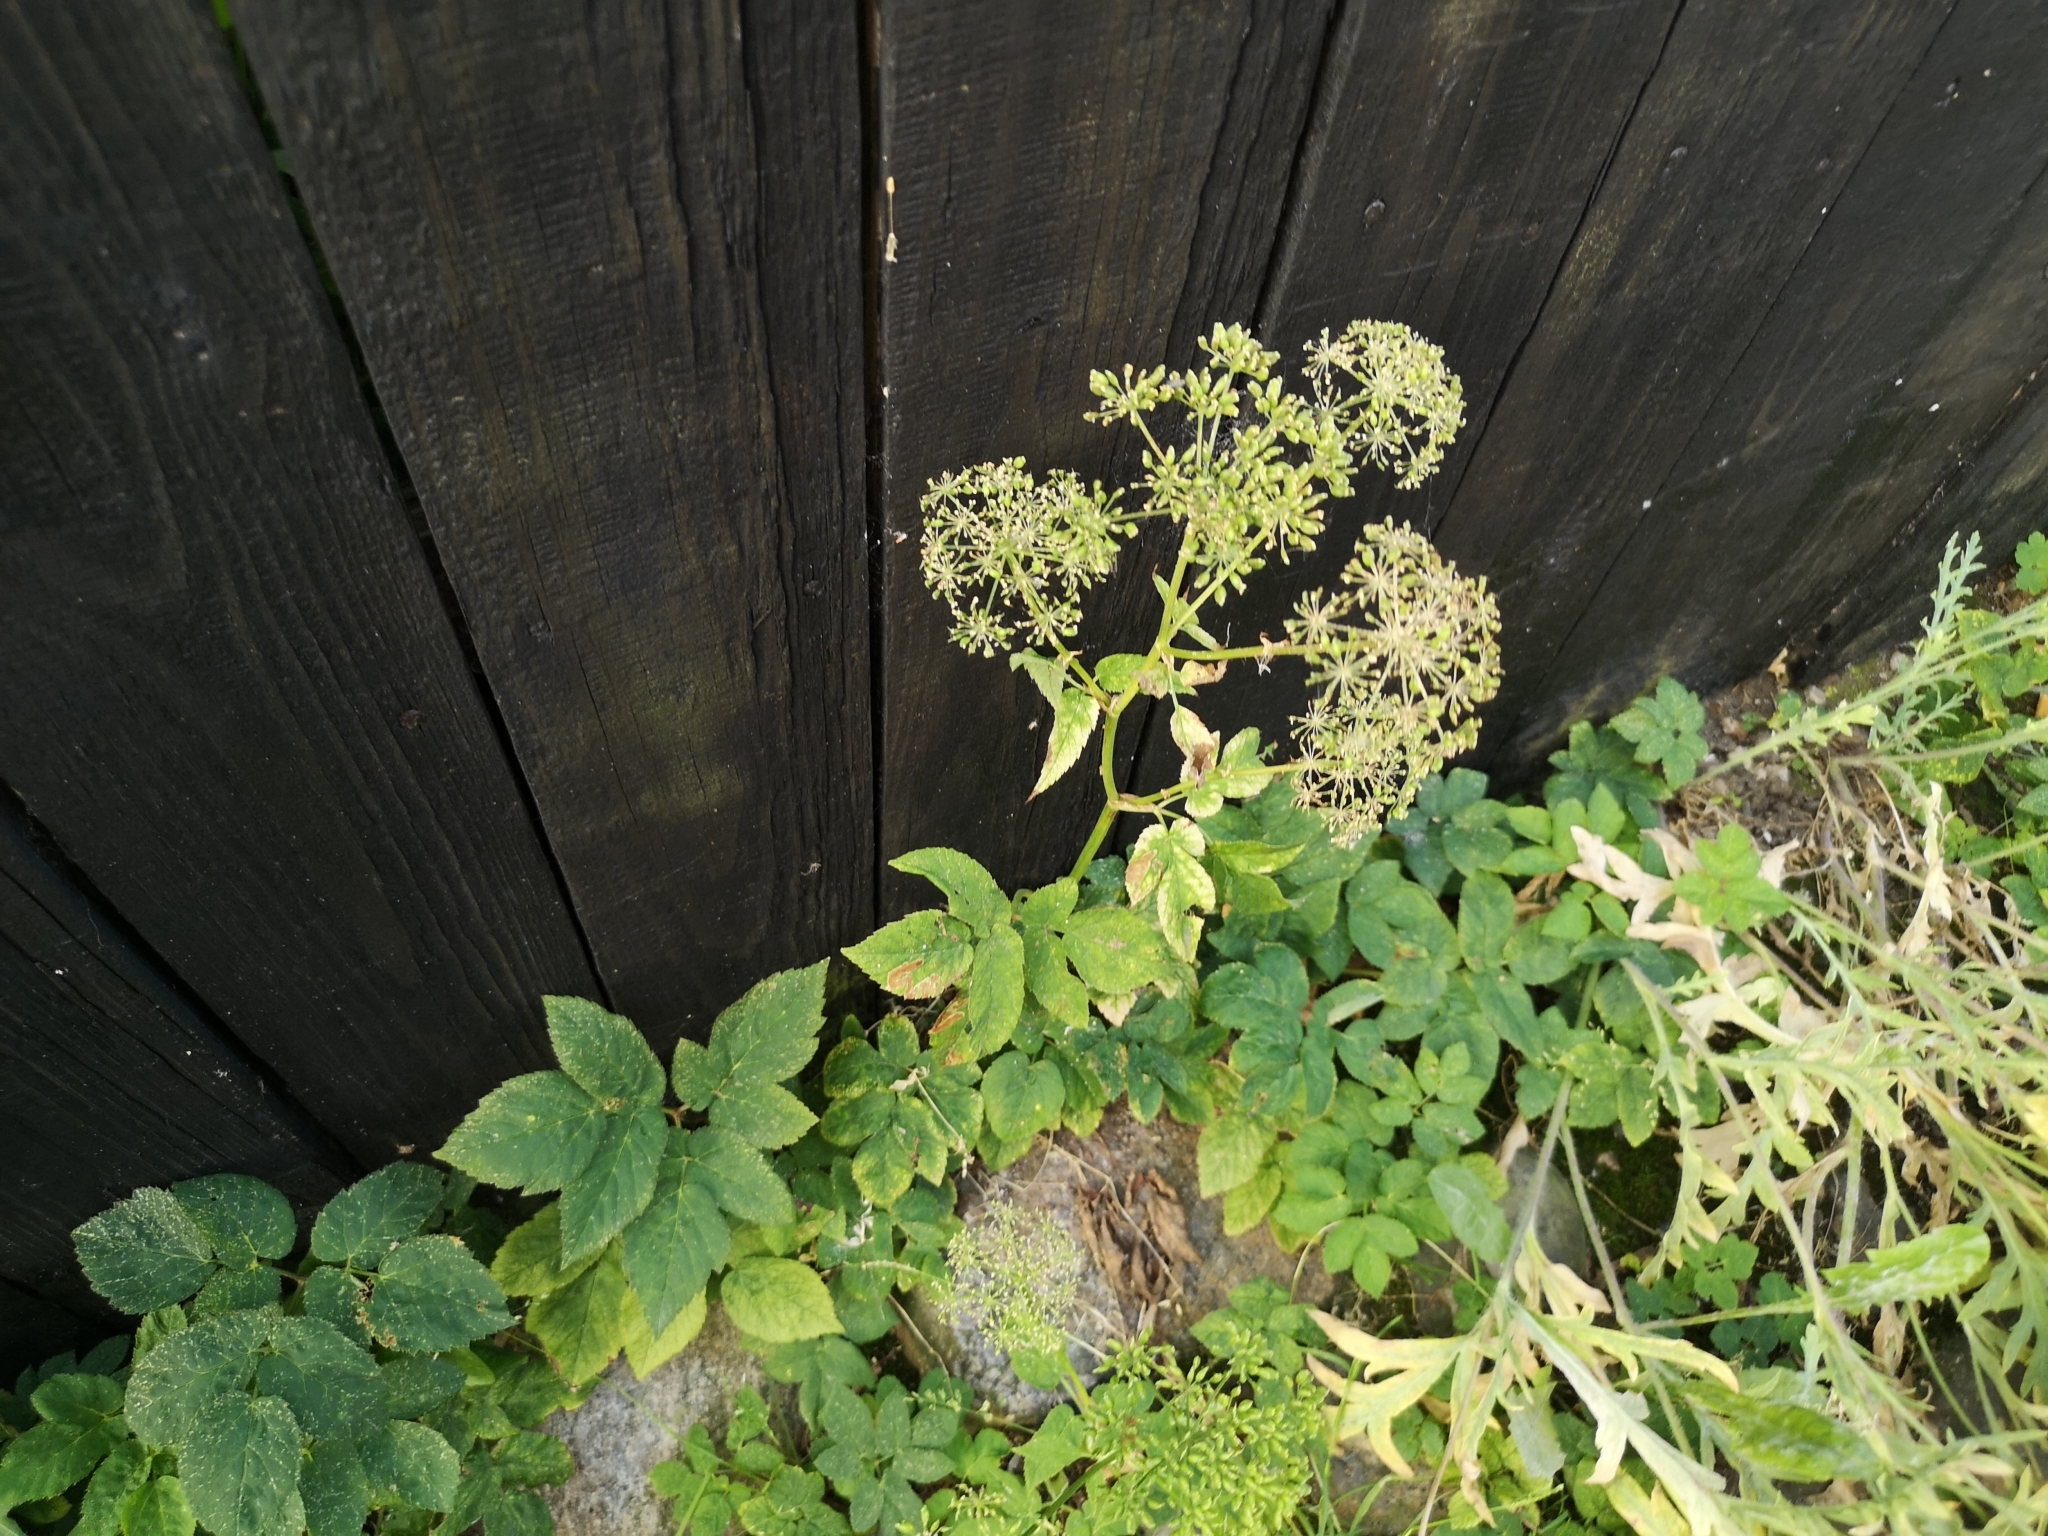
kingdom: Plantae
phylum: Tracheophyta
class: Magnoliopsida
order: Apiales
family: Apiaceae
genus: Aegopodium
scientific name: Aegopodium podagraria
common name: Ground-elder
